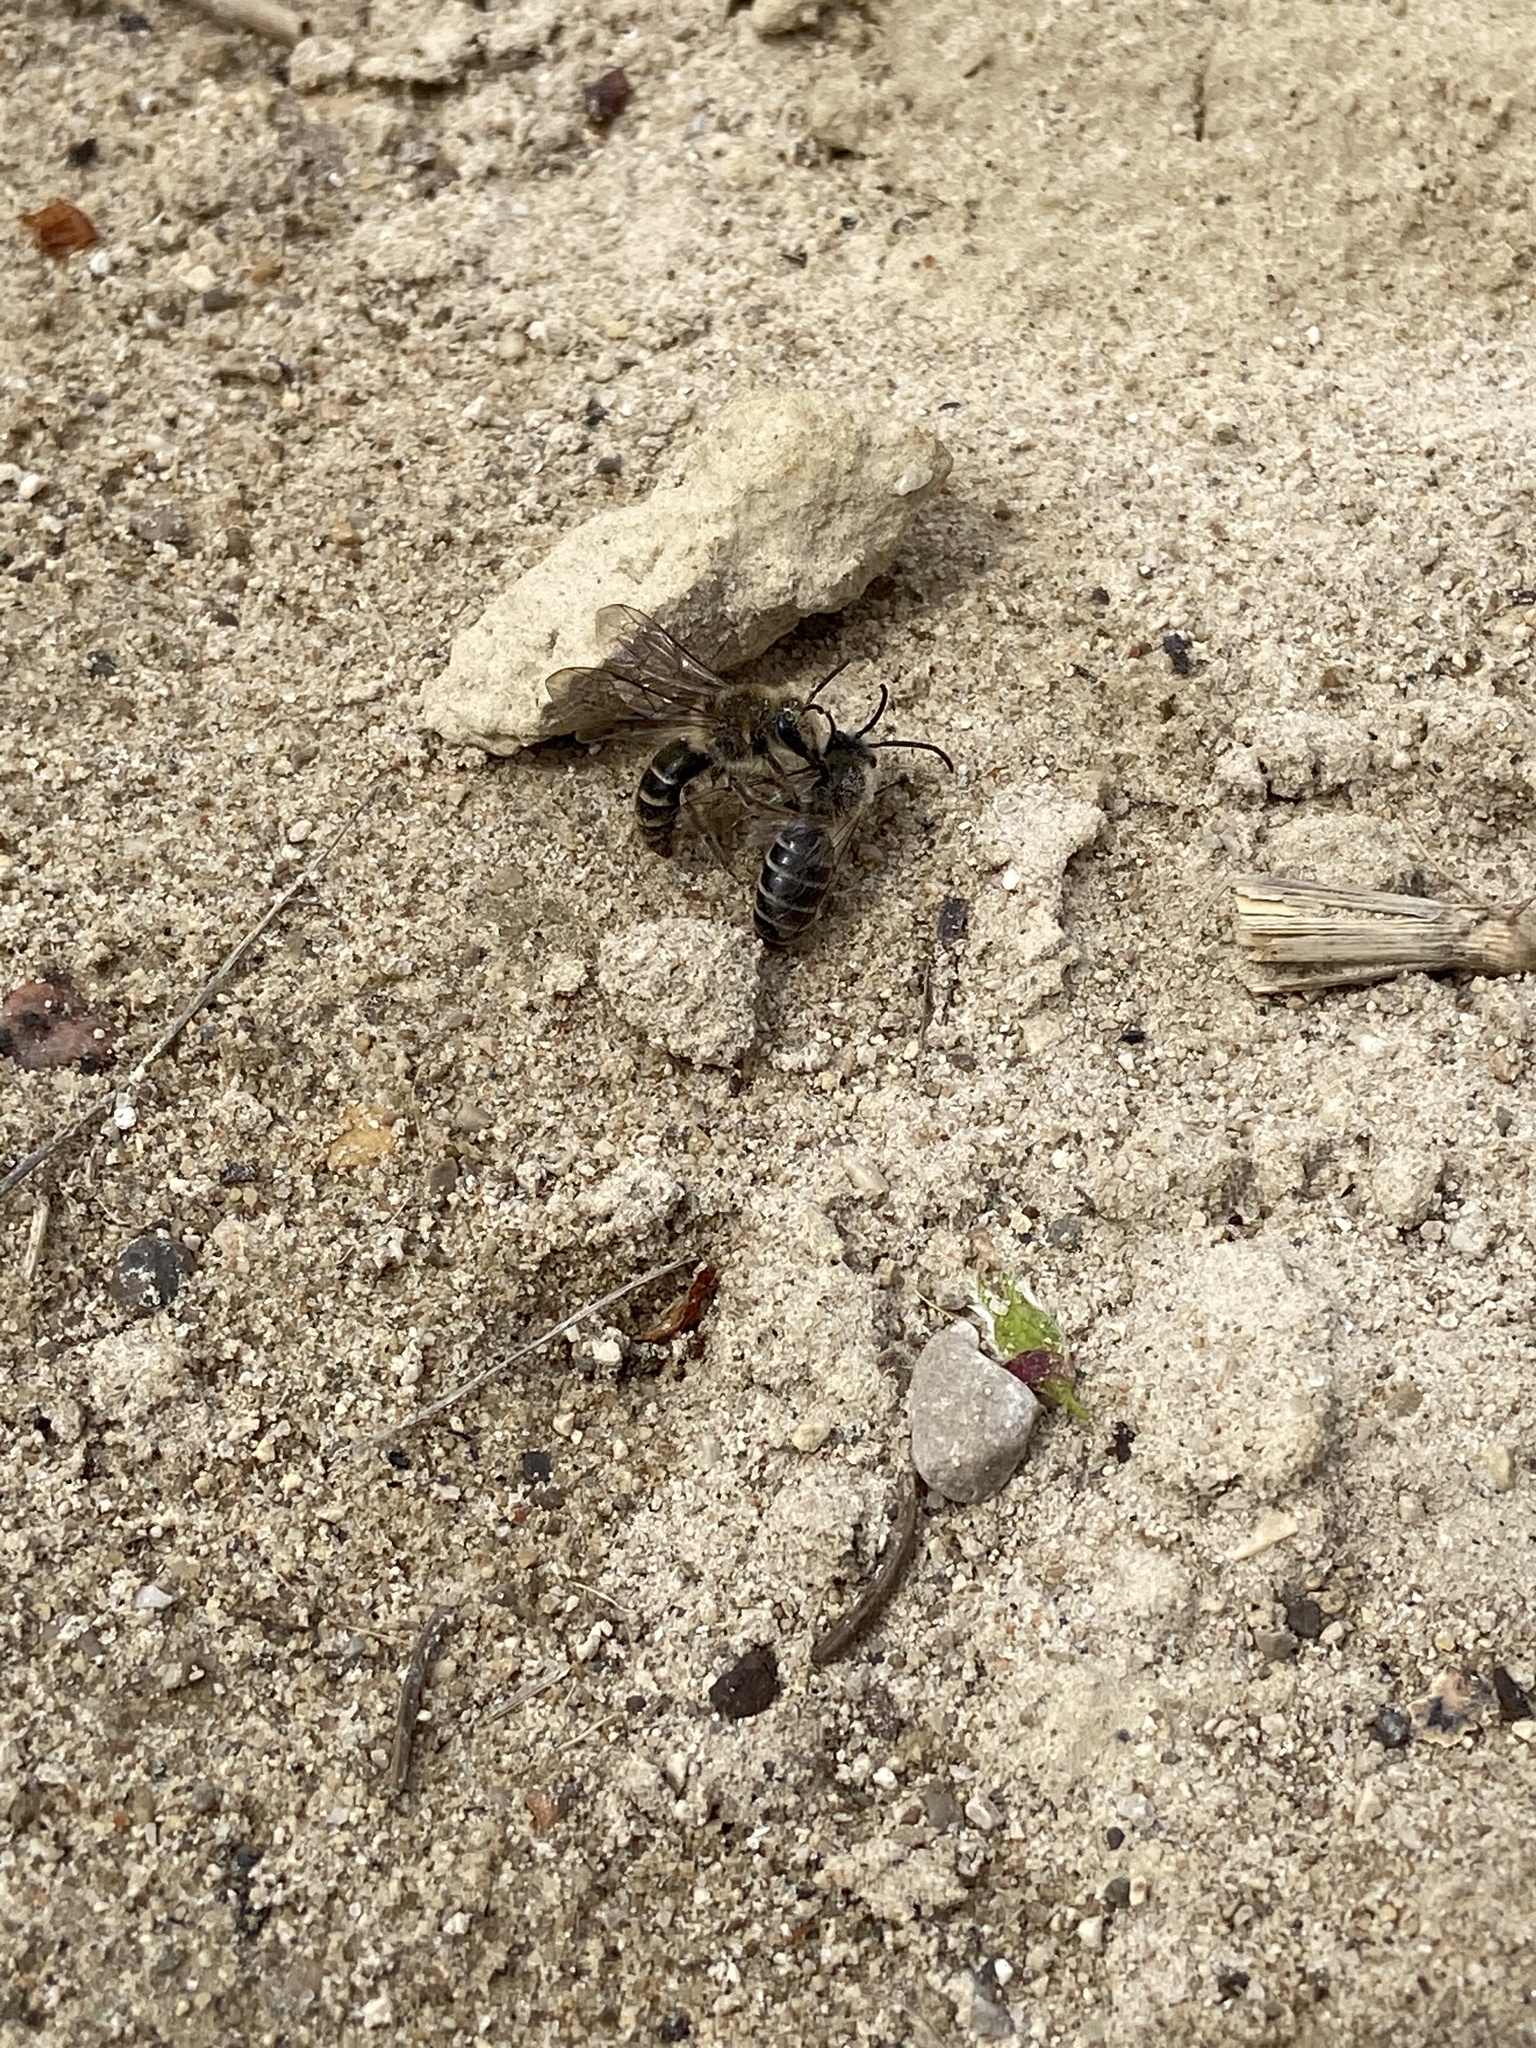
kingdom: Animalia
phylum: Arthropoda
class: Insecta
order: Hymenoptera
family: Colletidae
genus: Colletes
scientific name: Colletes inaequalis
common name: Unequal cellophane bee
